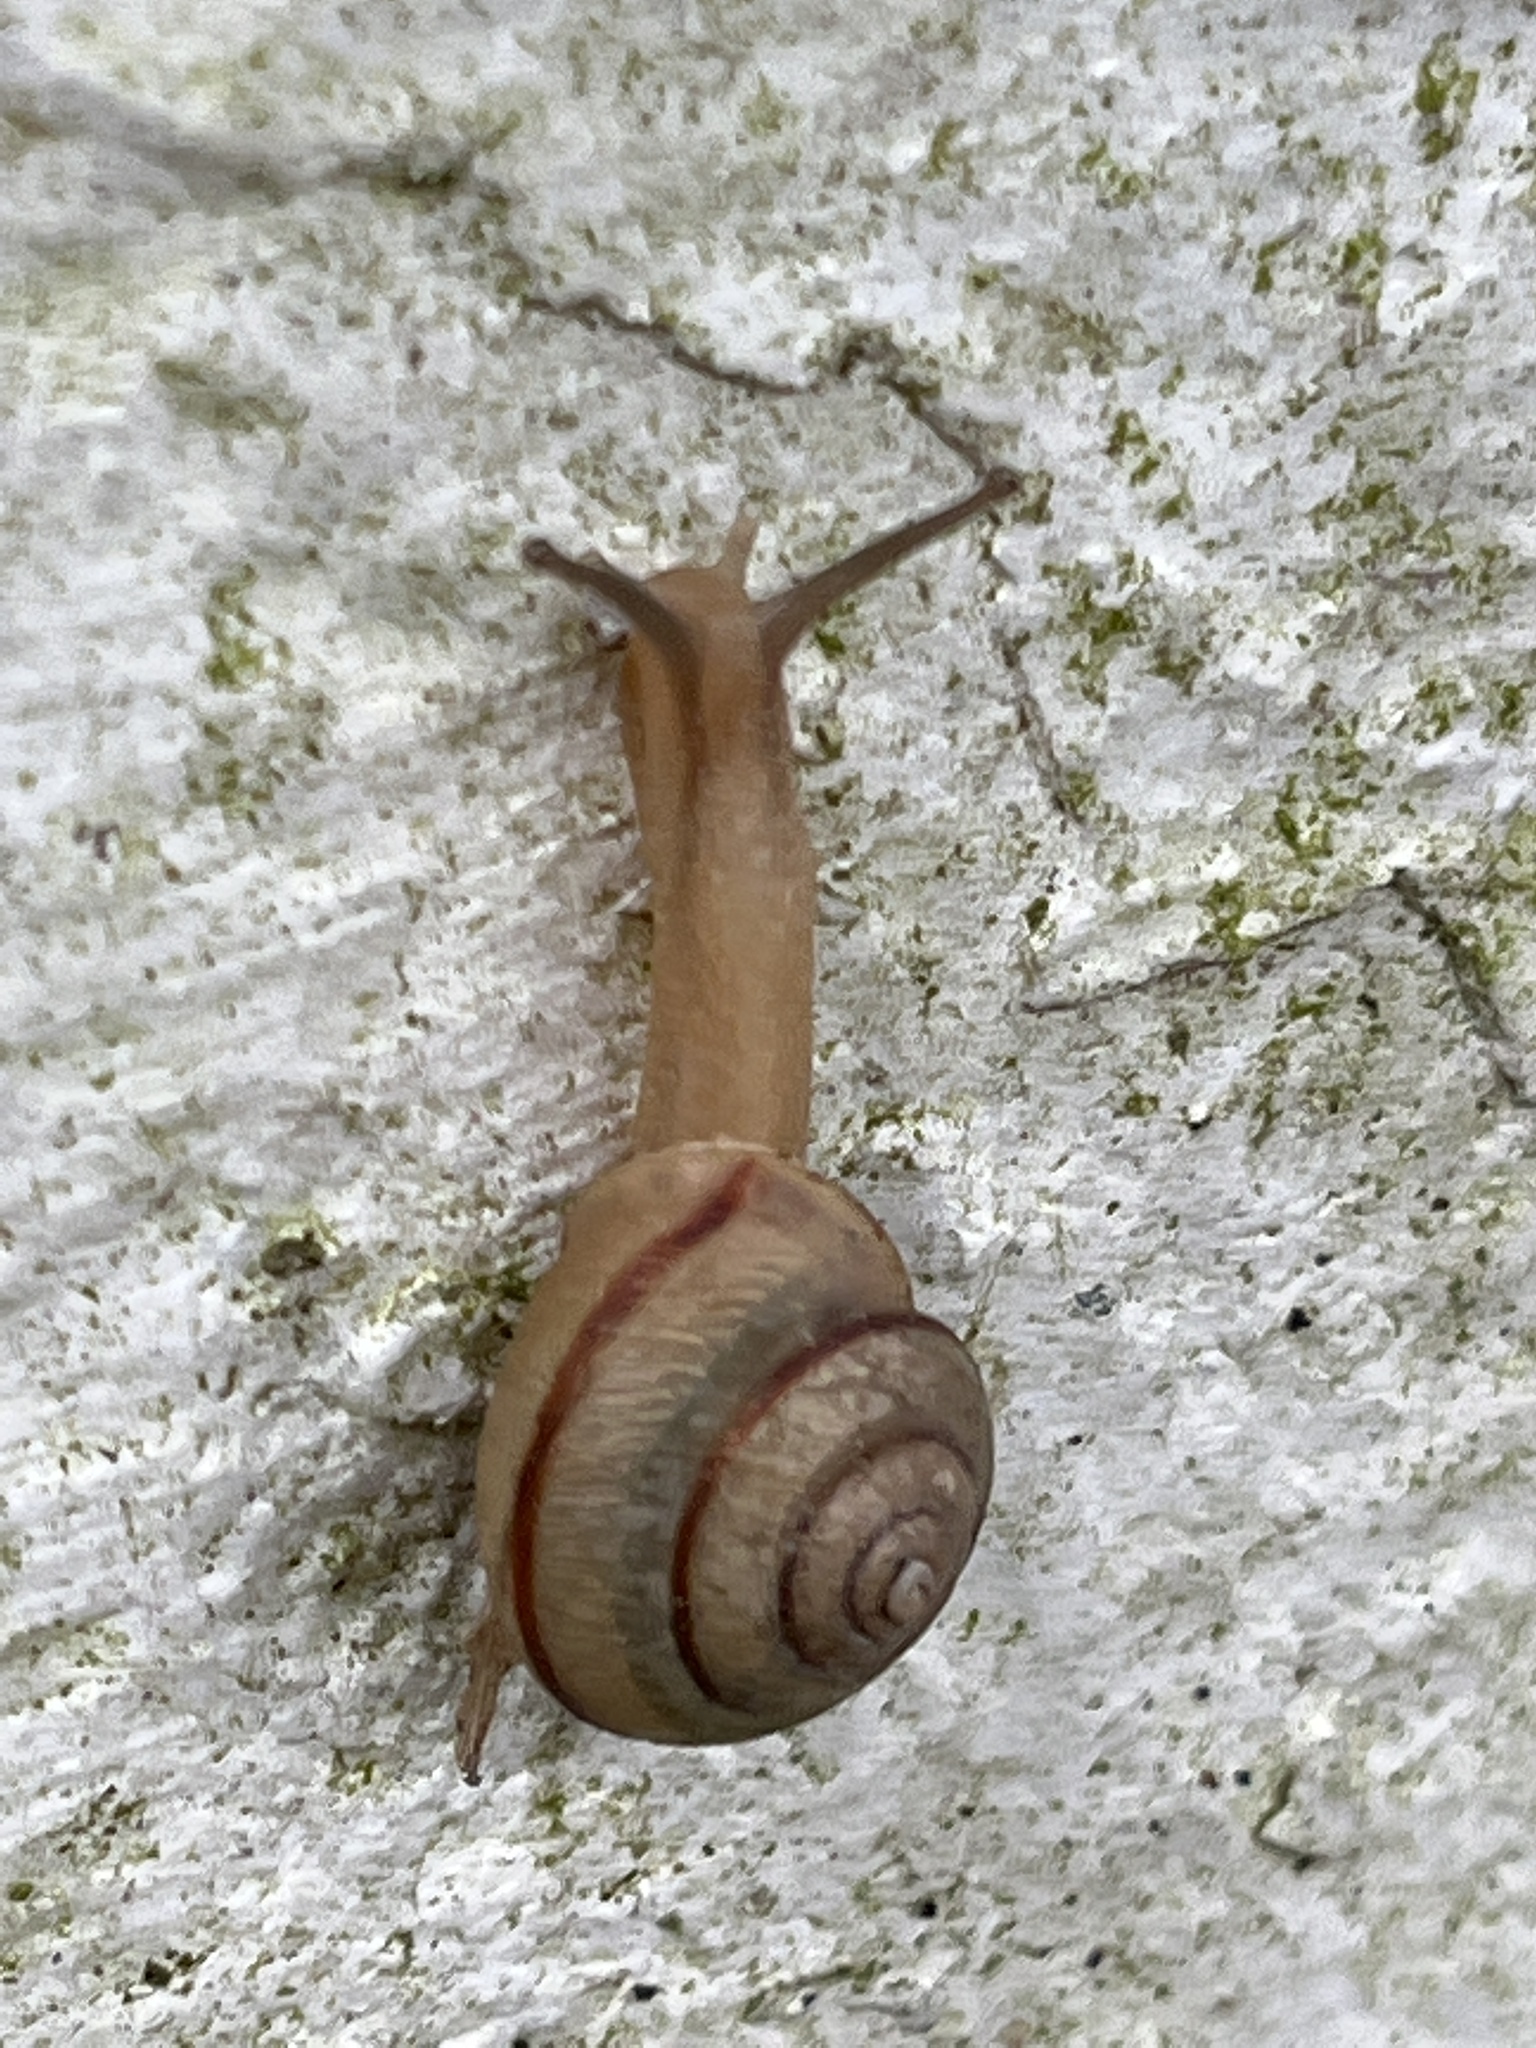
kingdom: Animalia
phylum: Mollusca
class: Gastropoda
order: Stylommatophora
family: Camaenidae
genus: Bradybaena
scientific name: Bradybaena similaris
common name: Asian trampsnail
